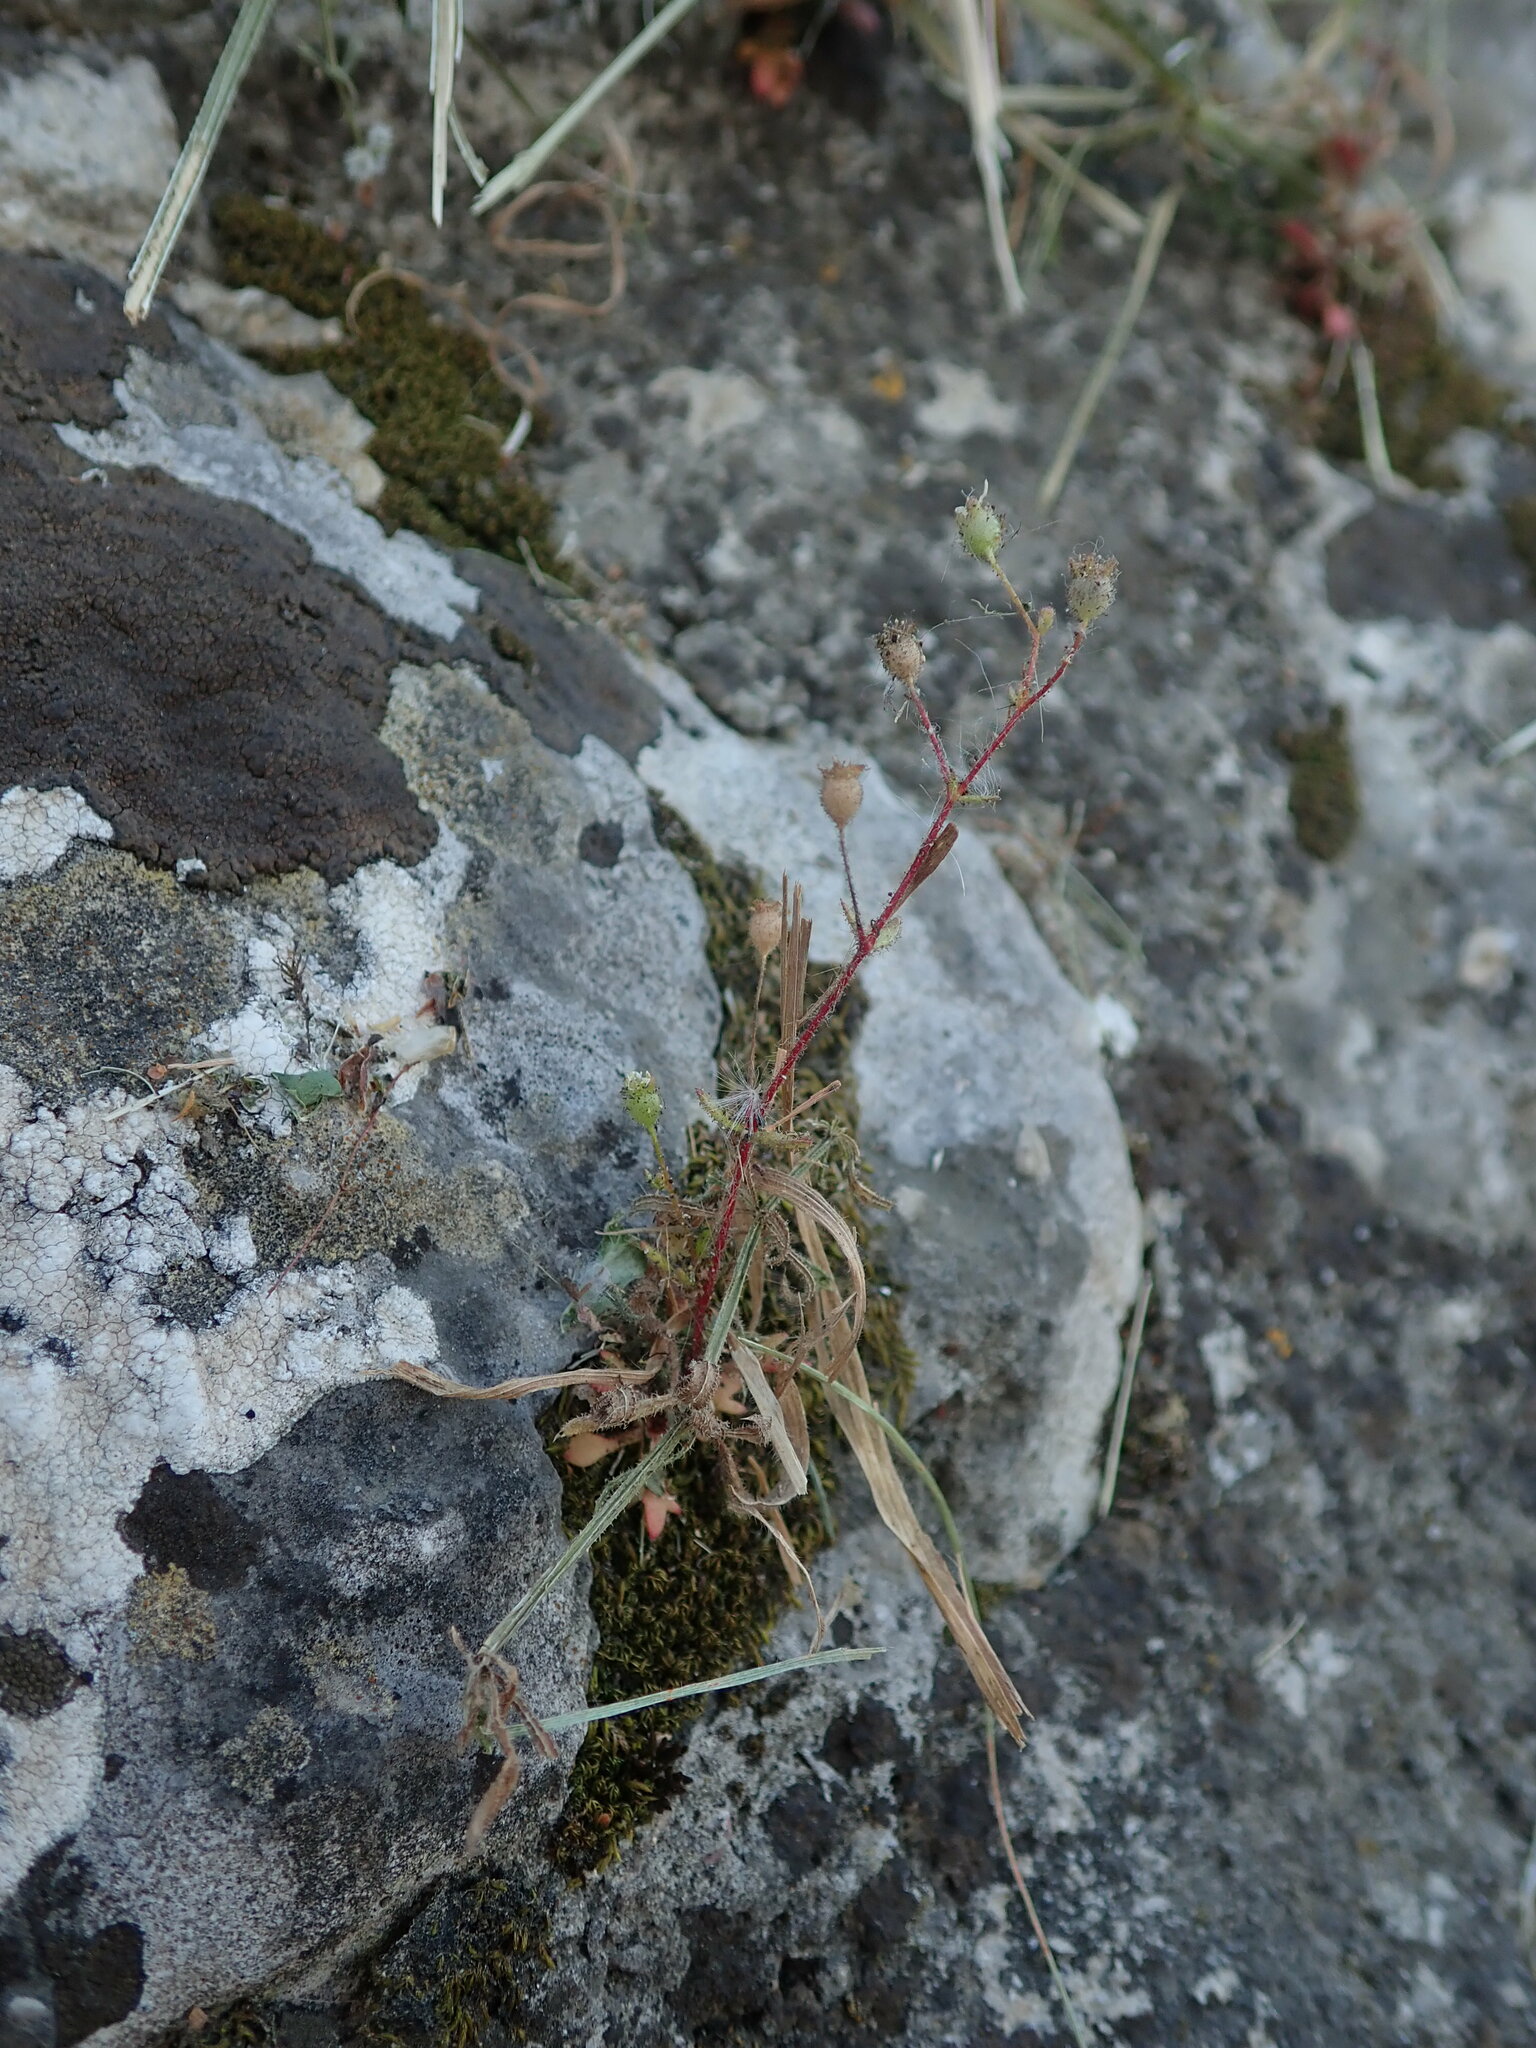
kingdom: Plantae
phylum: Tracheophyta
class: Magnoliopsida
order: Saxifragales
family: Saxifragaceae
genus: Saxifraga
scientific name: Saxifraga tridactylites
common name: Rue-leaved saxifrage
